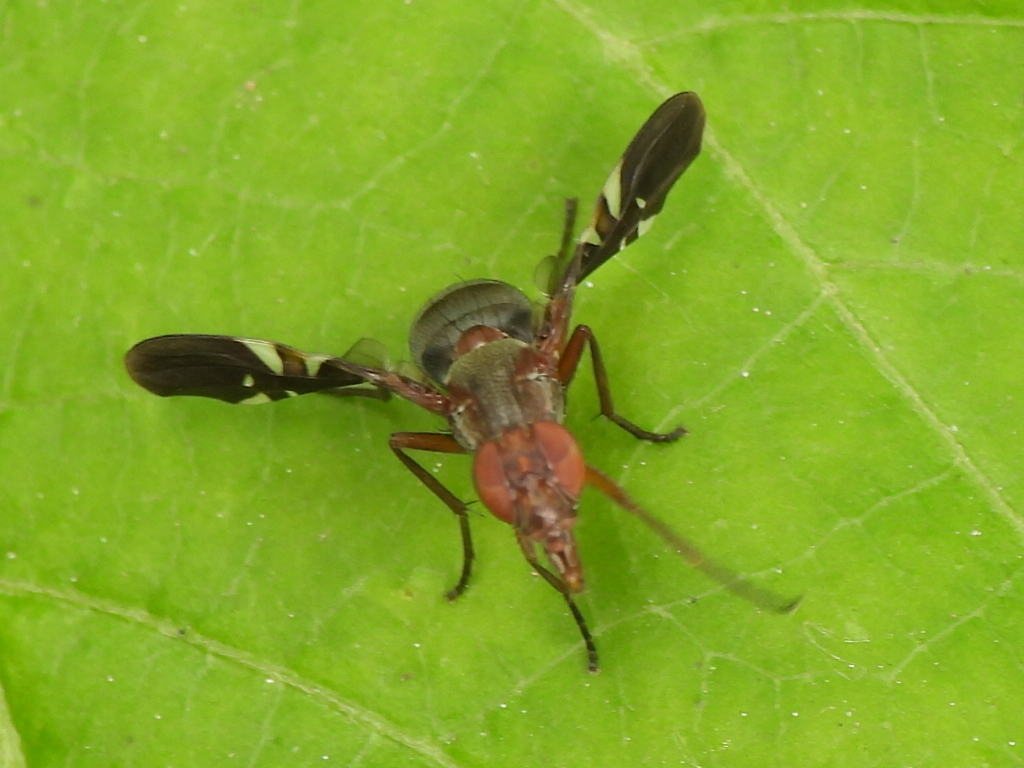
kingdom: Animalia
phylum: Arthropoda
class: Insecta
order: Diptera
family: Ulidiidae
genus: Delphinia
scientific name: Delphinia picta
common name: Common picture-winged fly
